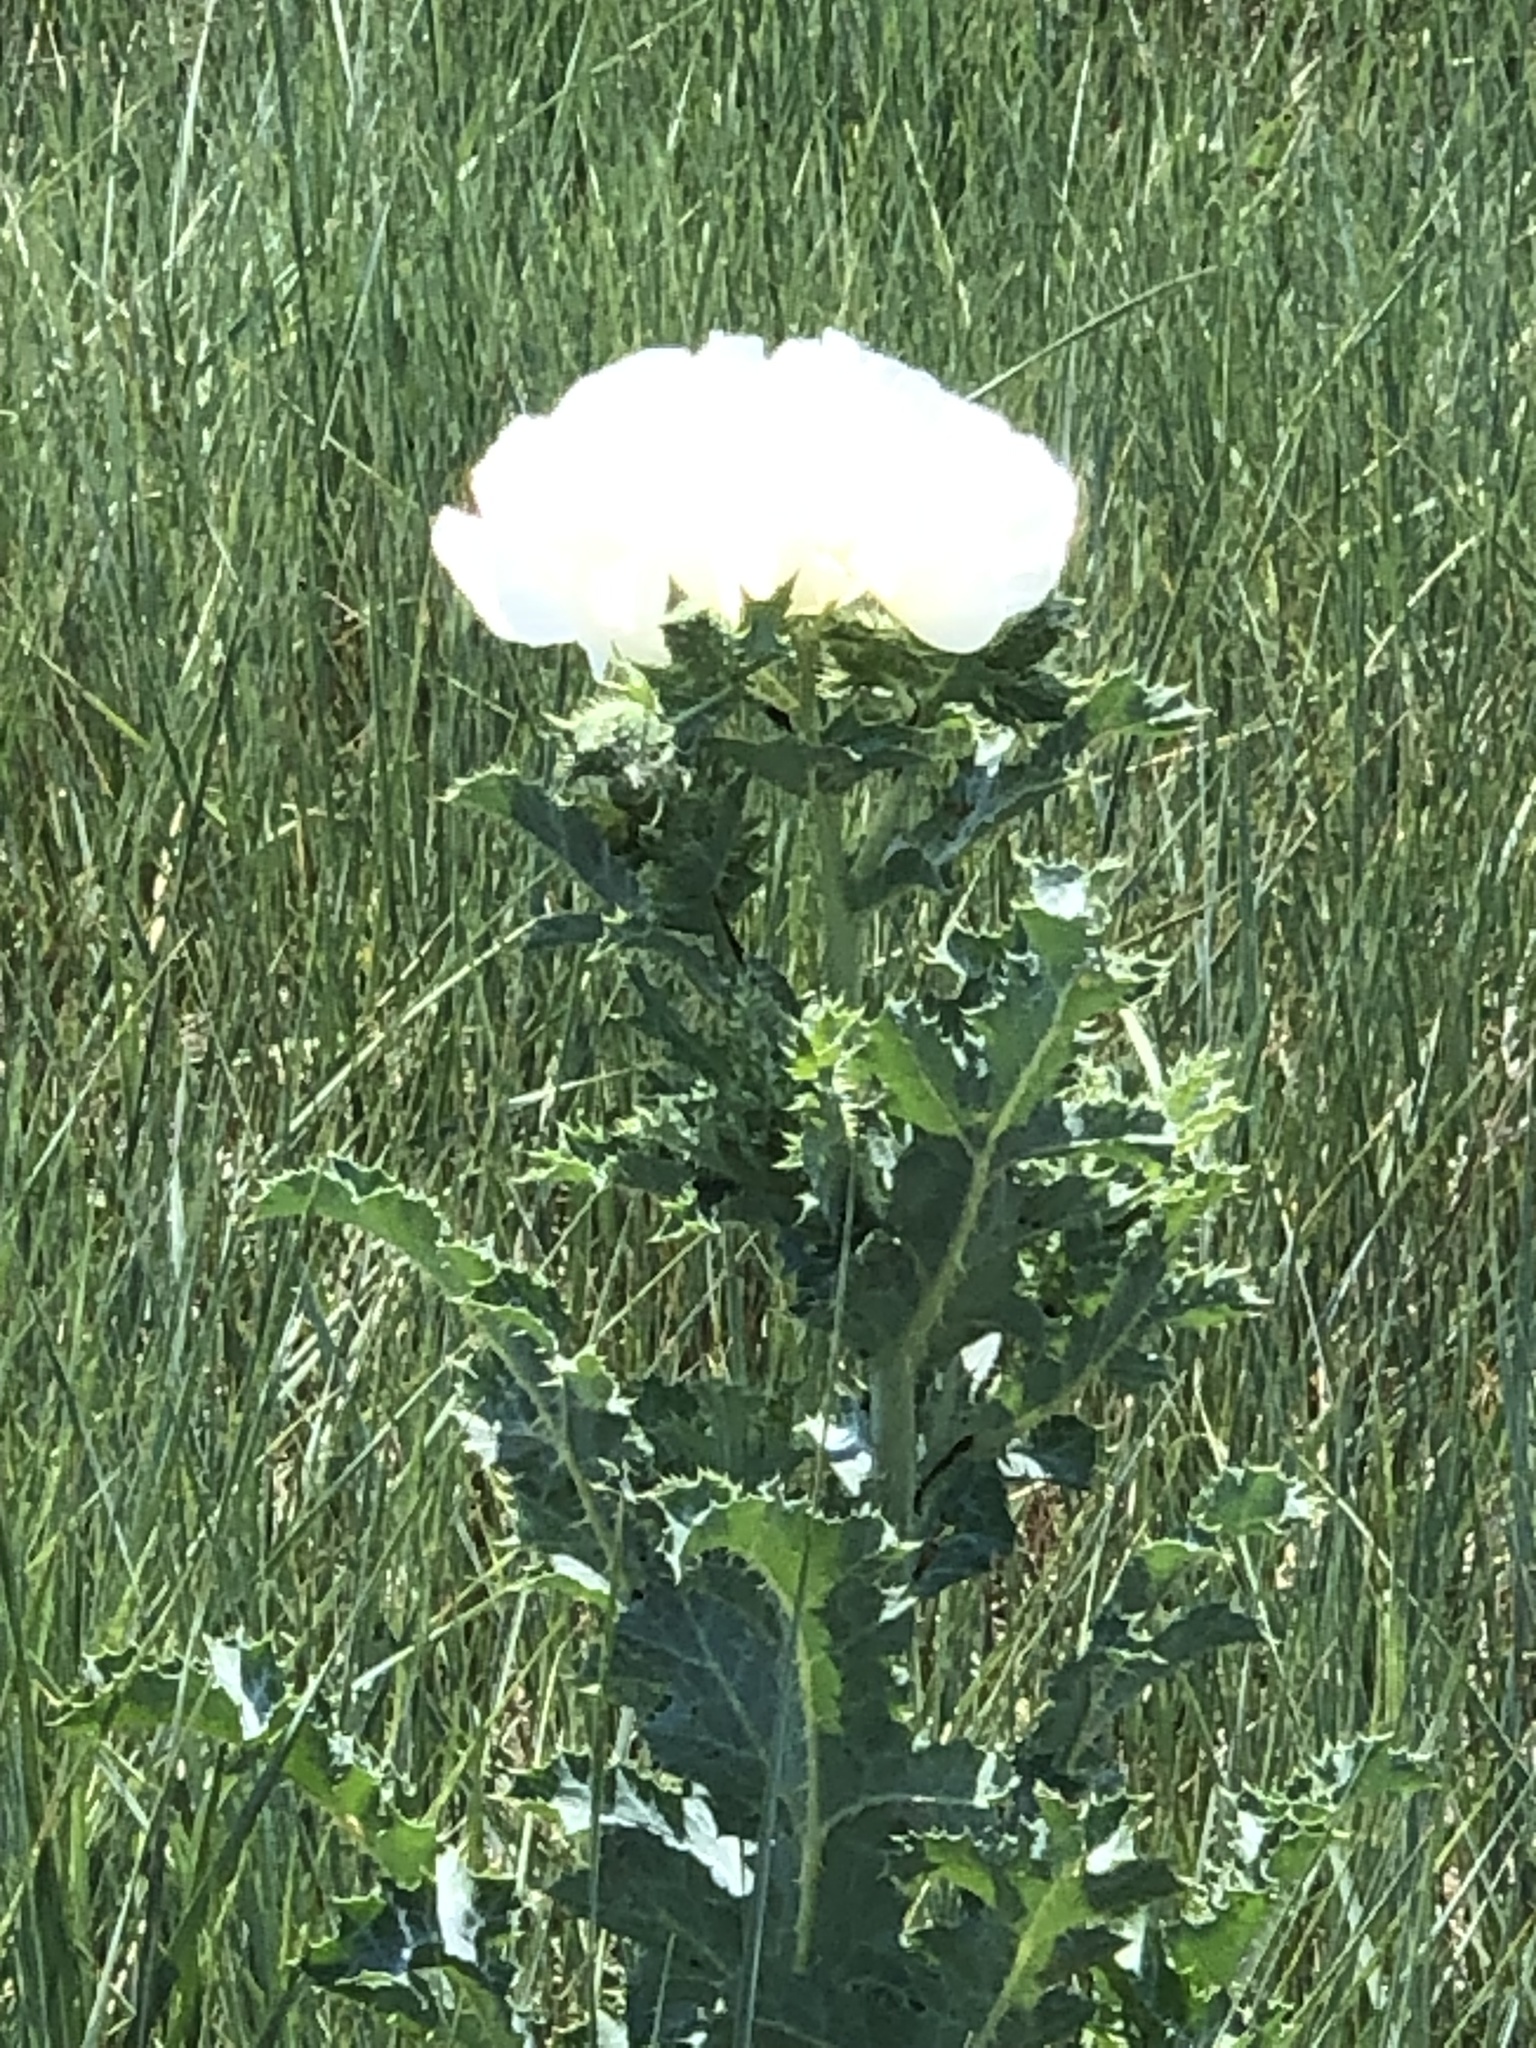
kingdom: Plantae
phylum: Tracheophyta
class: Magnoliopsida
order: Ranunculales
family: Papaveraceae
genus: Argemone
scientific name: Argemone polyanthemos
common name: Plains prickly-poppy
